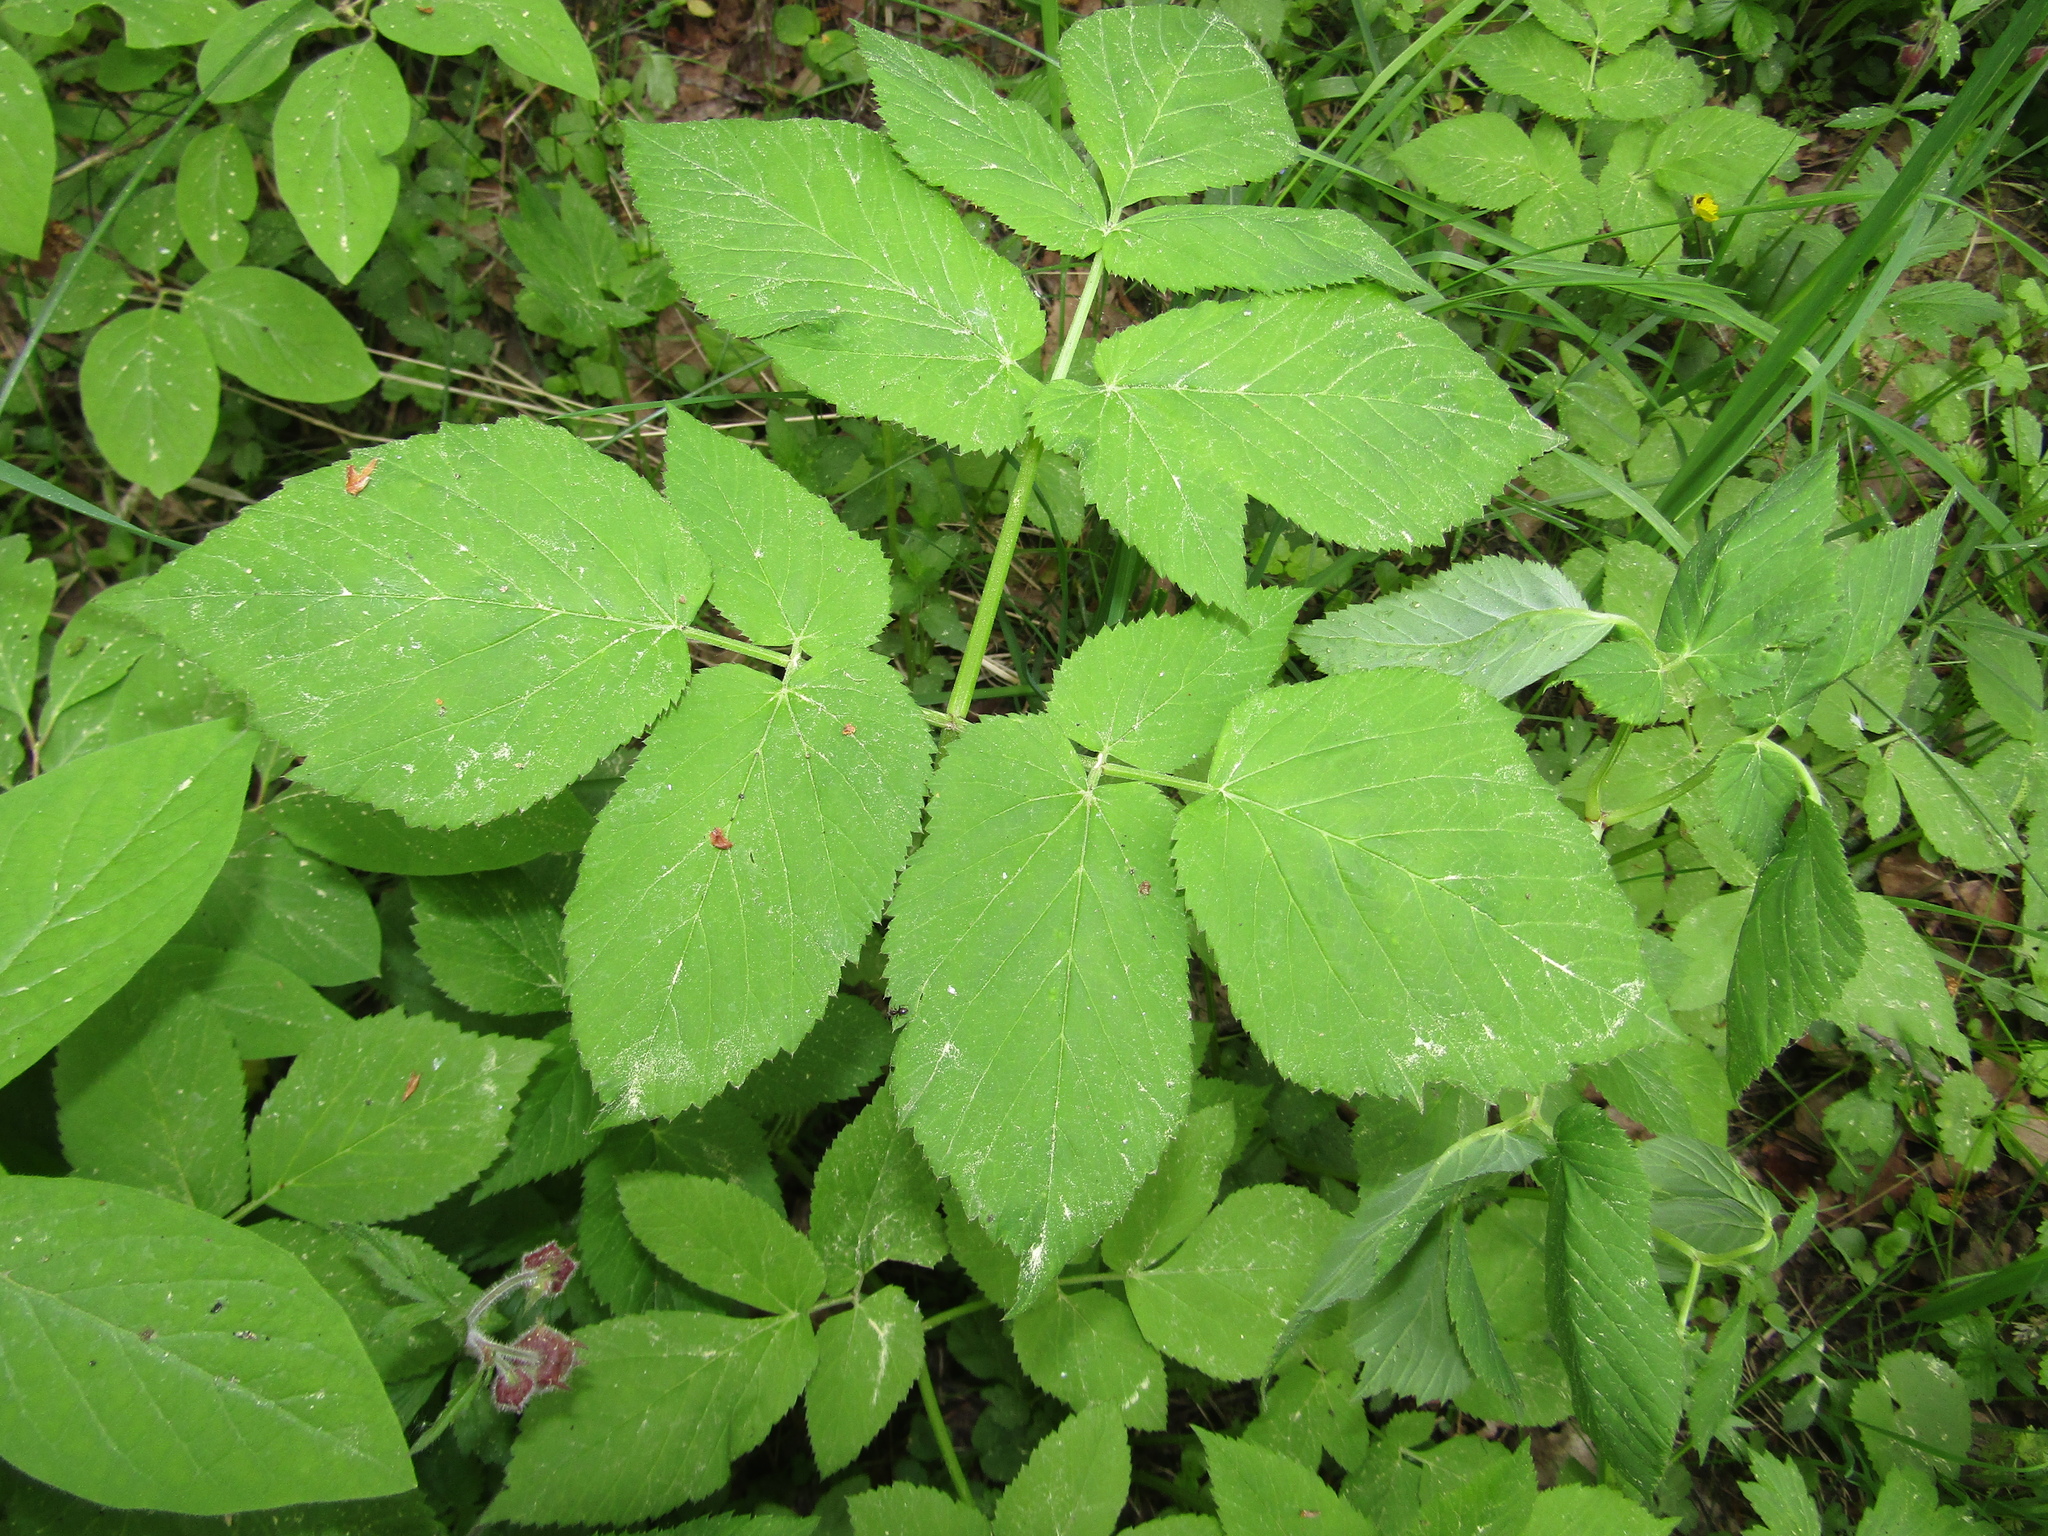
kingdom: Plantae
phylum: Tracheophyta
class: Magnoliopsida
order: Apiales
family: Apiaceae
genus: Aegopodium
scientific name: Aegopodium podagraria
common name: Ground-elder
